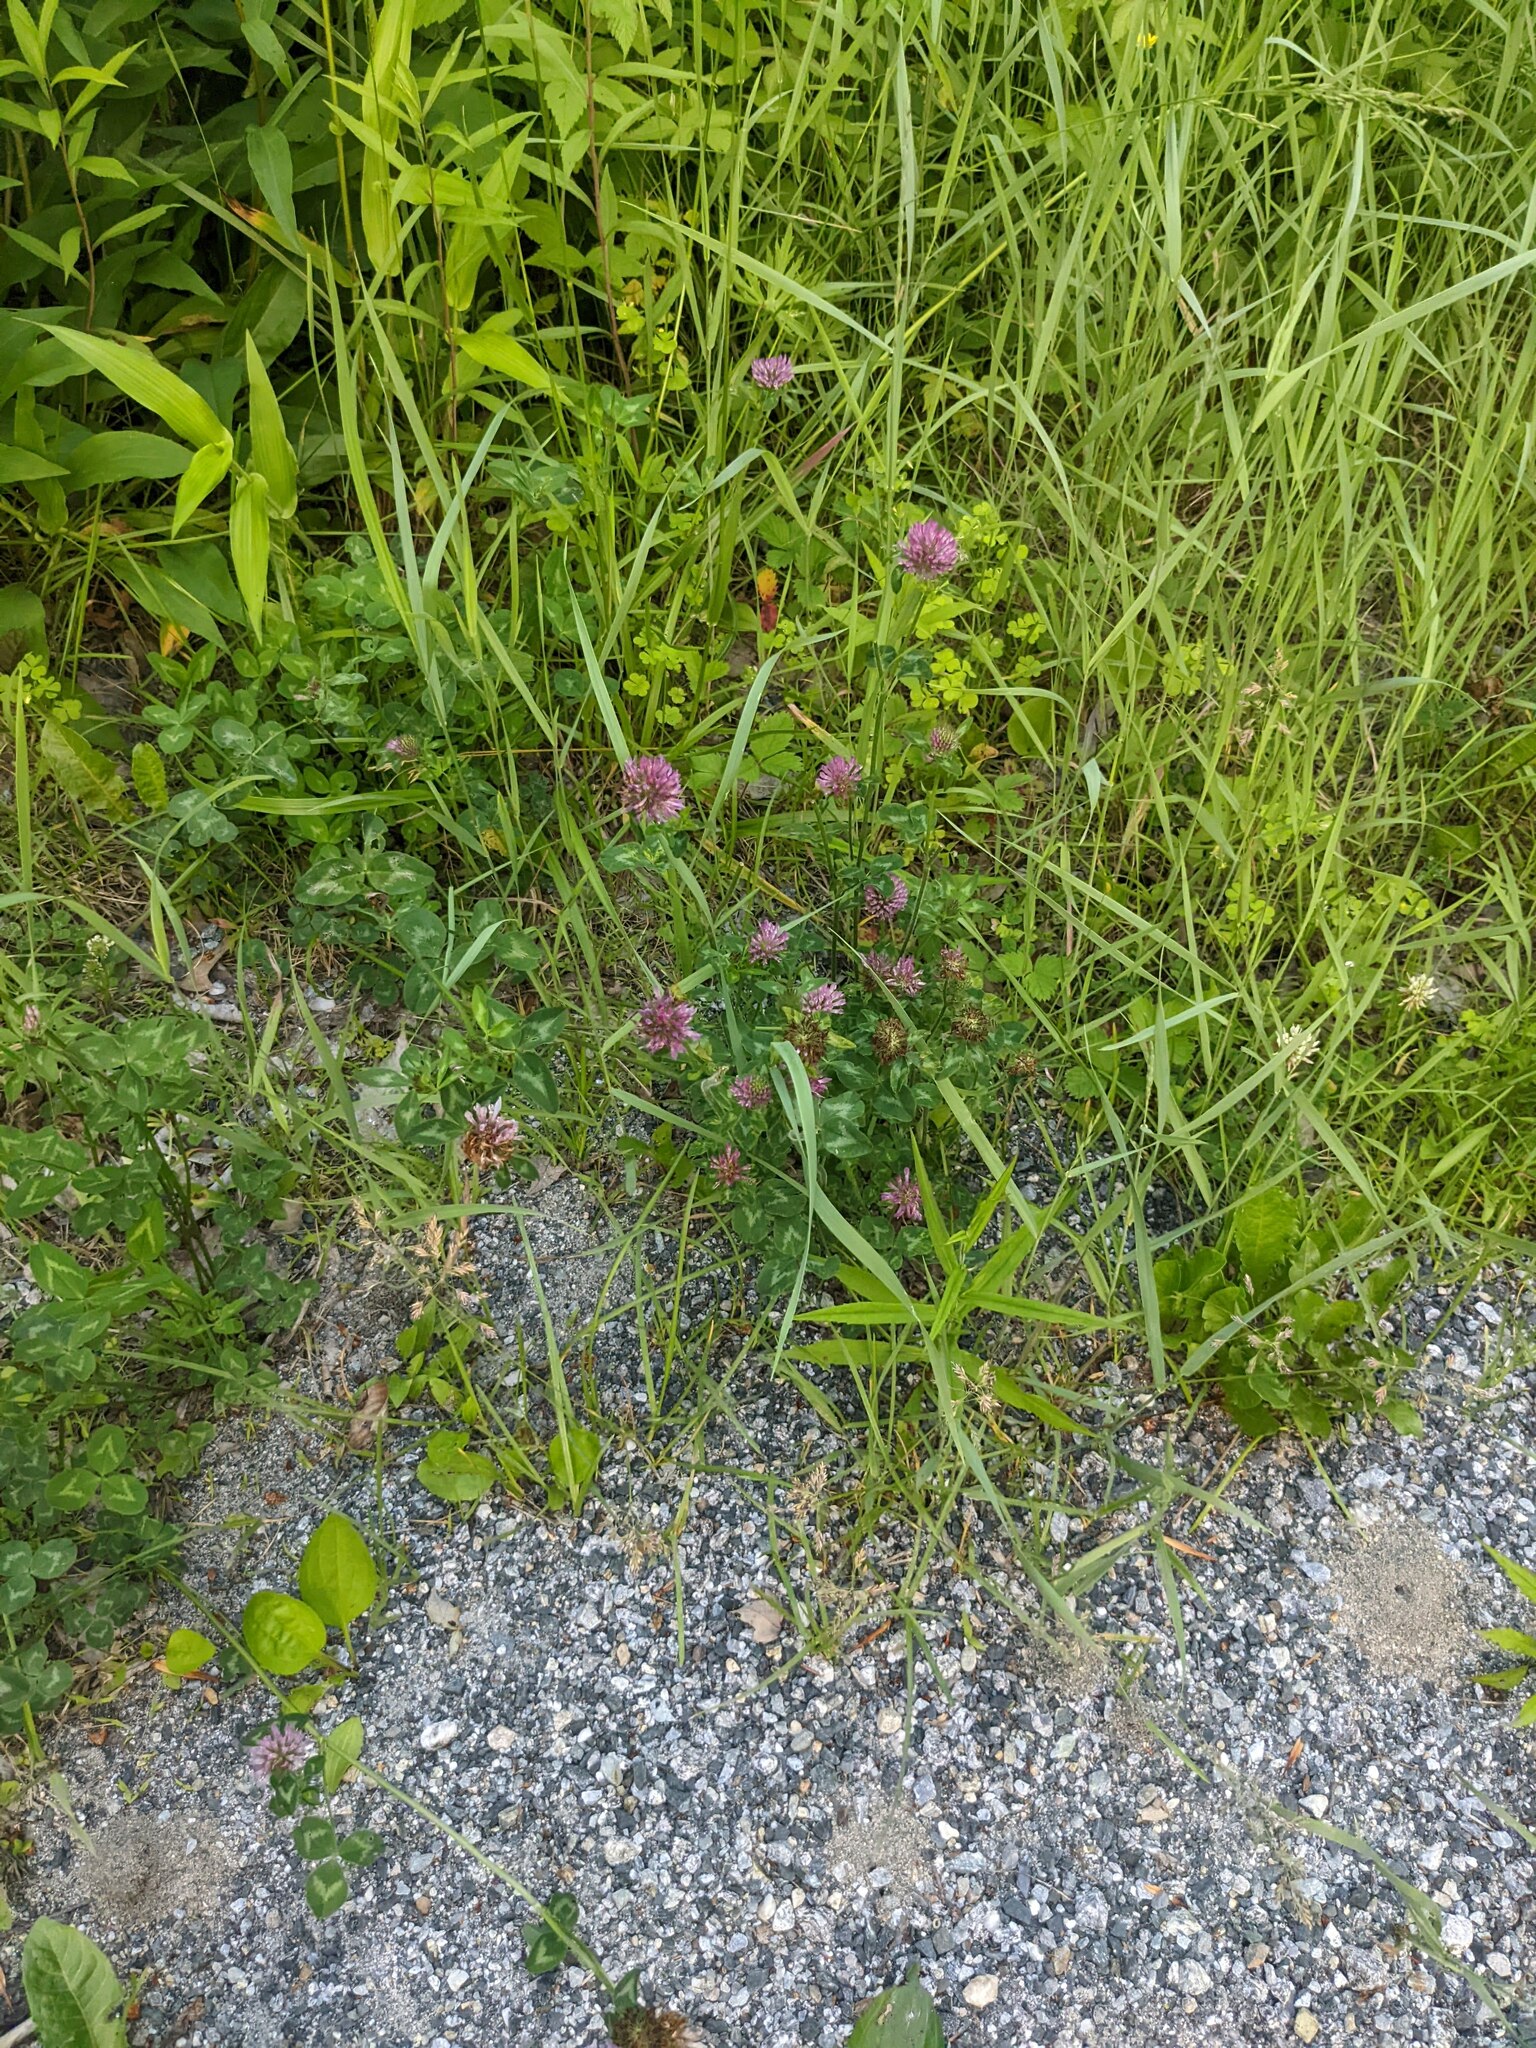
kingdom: Plantae
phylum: Tracheophyta
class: Magnoliopsida
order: Fabales
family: Fabaceae
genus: Trifolium
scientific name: Trifolium pratense
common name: Red clover
